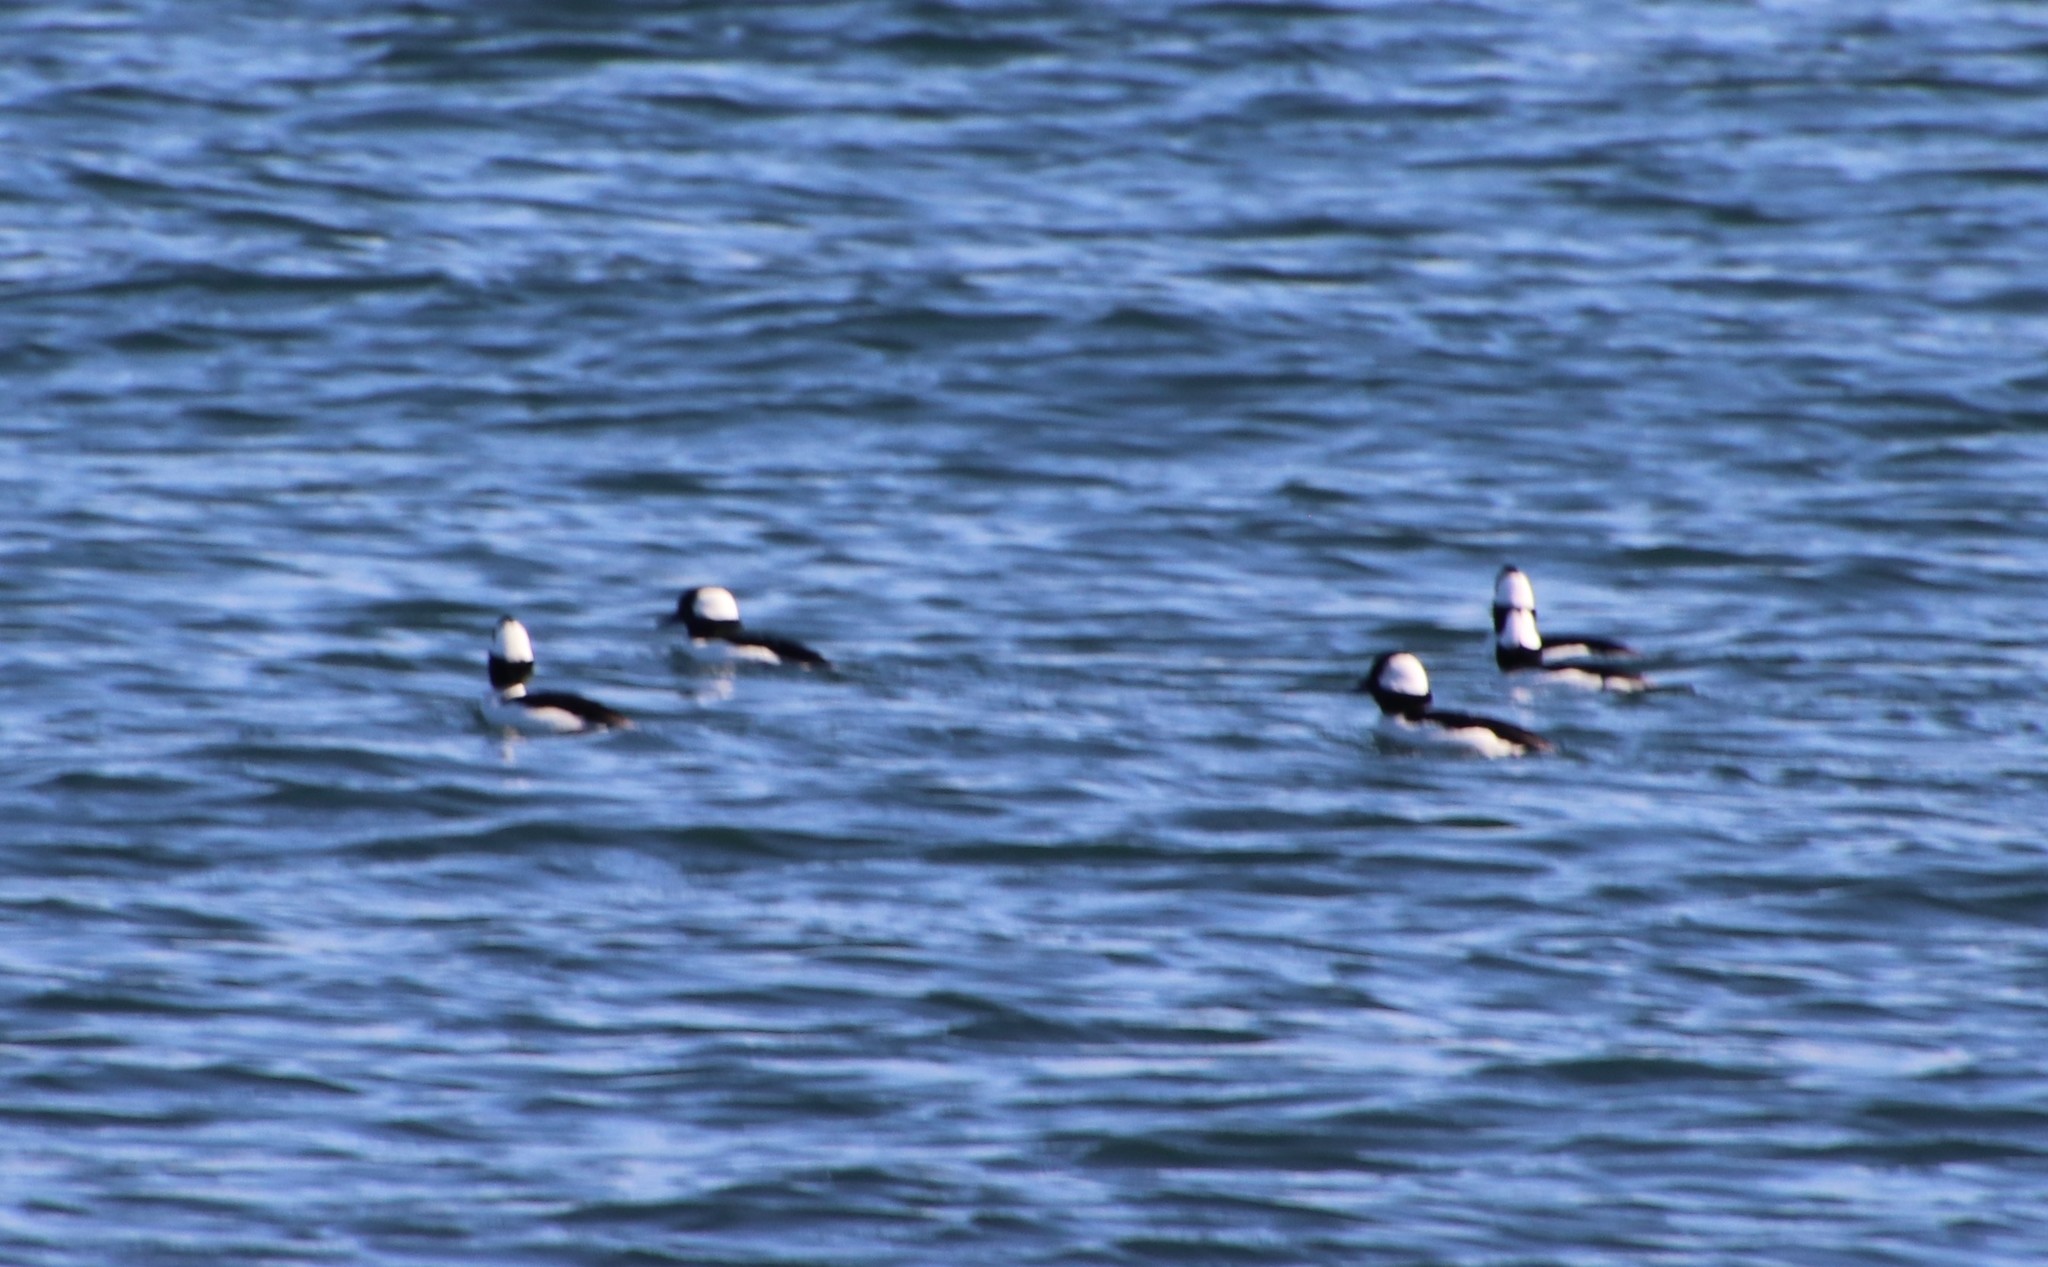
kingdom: Animalia
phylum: Chordata
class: Aves
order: Anseriformes
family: Anatidae
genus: Bucephala
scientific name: Bucephala albeola
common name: Bufflehead
